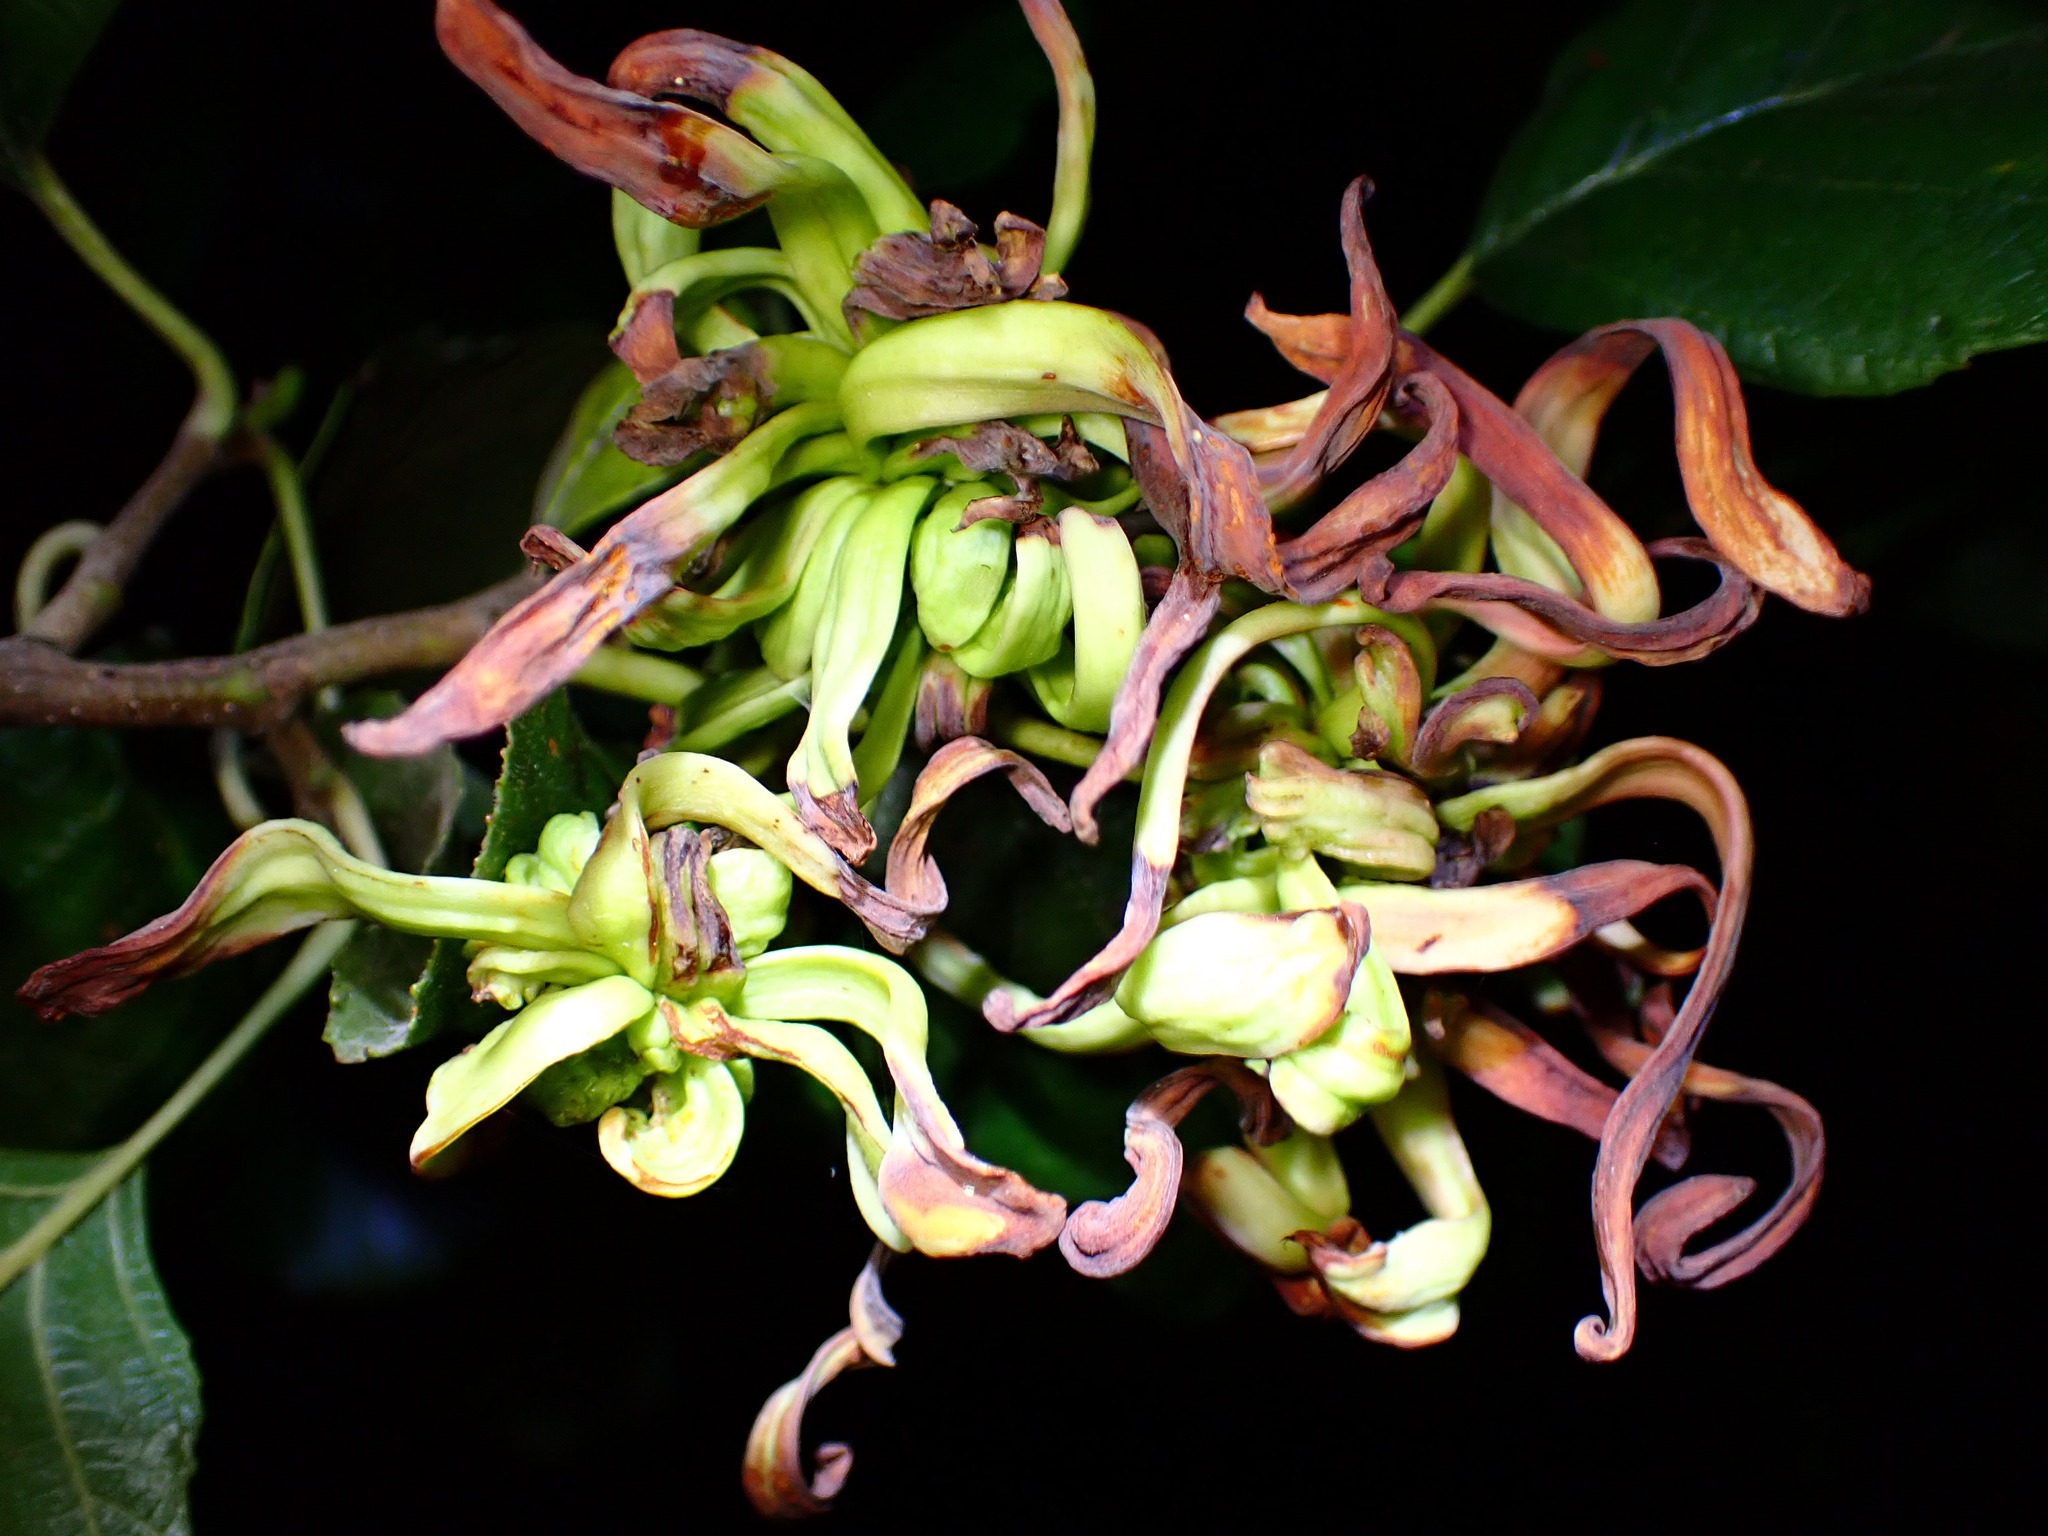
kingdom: Fungi
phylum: Ascomycota
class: Taphrinomycetes
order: Taphrinales
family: Taphrinaceae
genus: Taphrina
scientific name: Taphrina occidentalis
